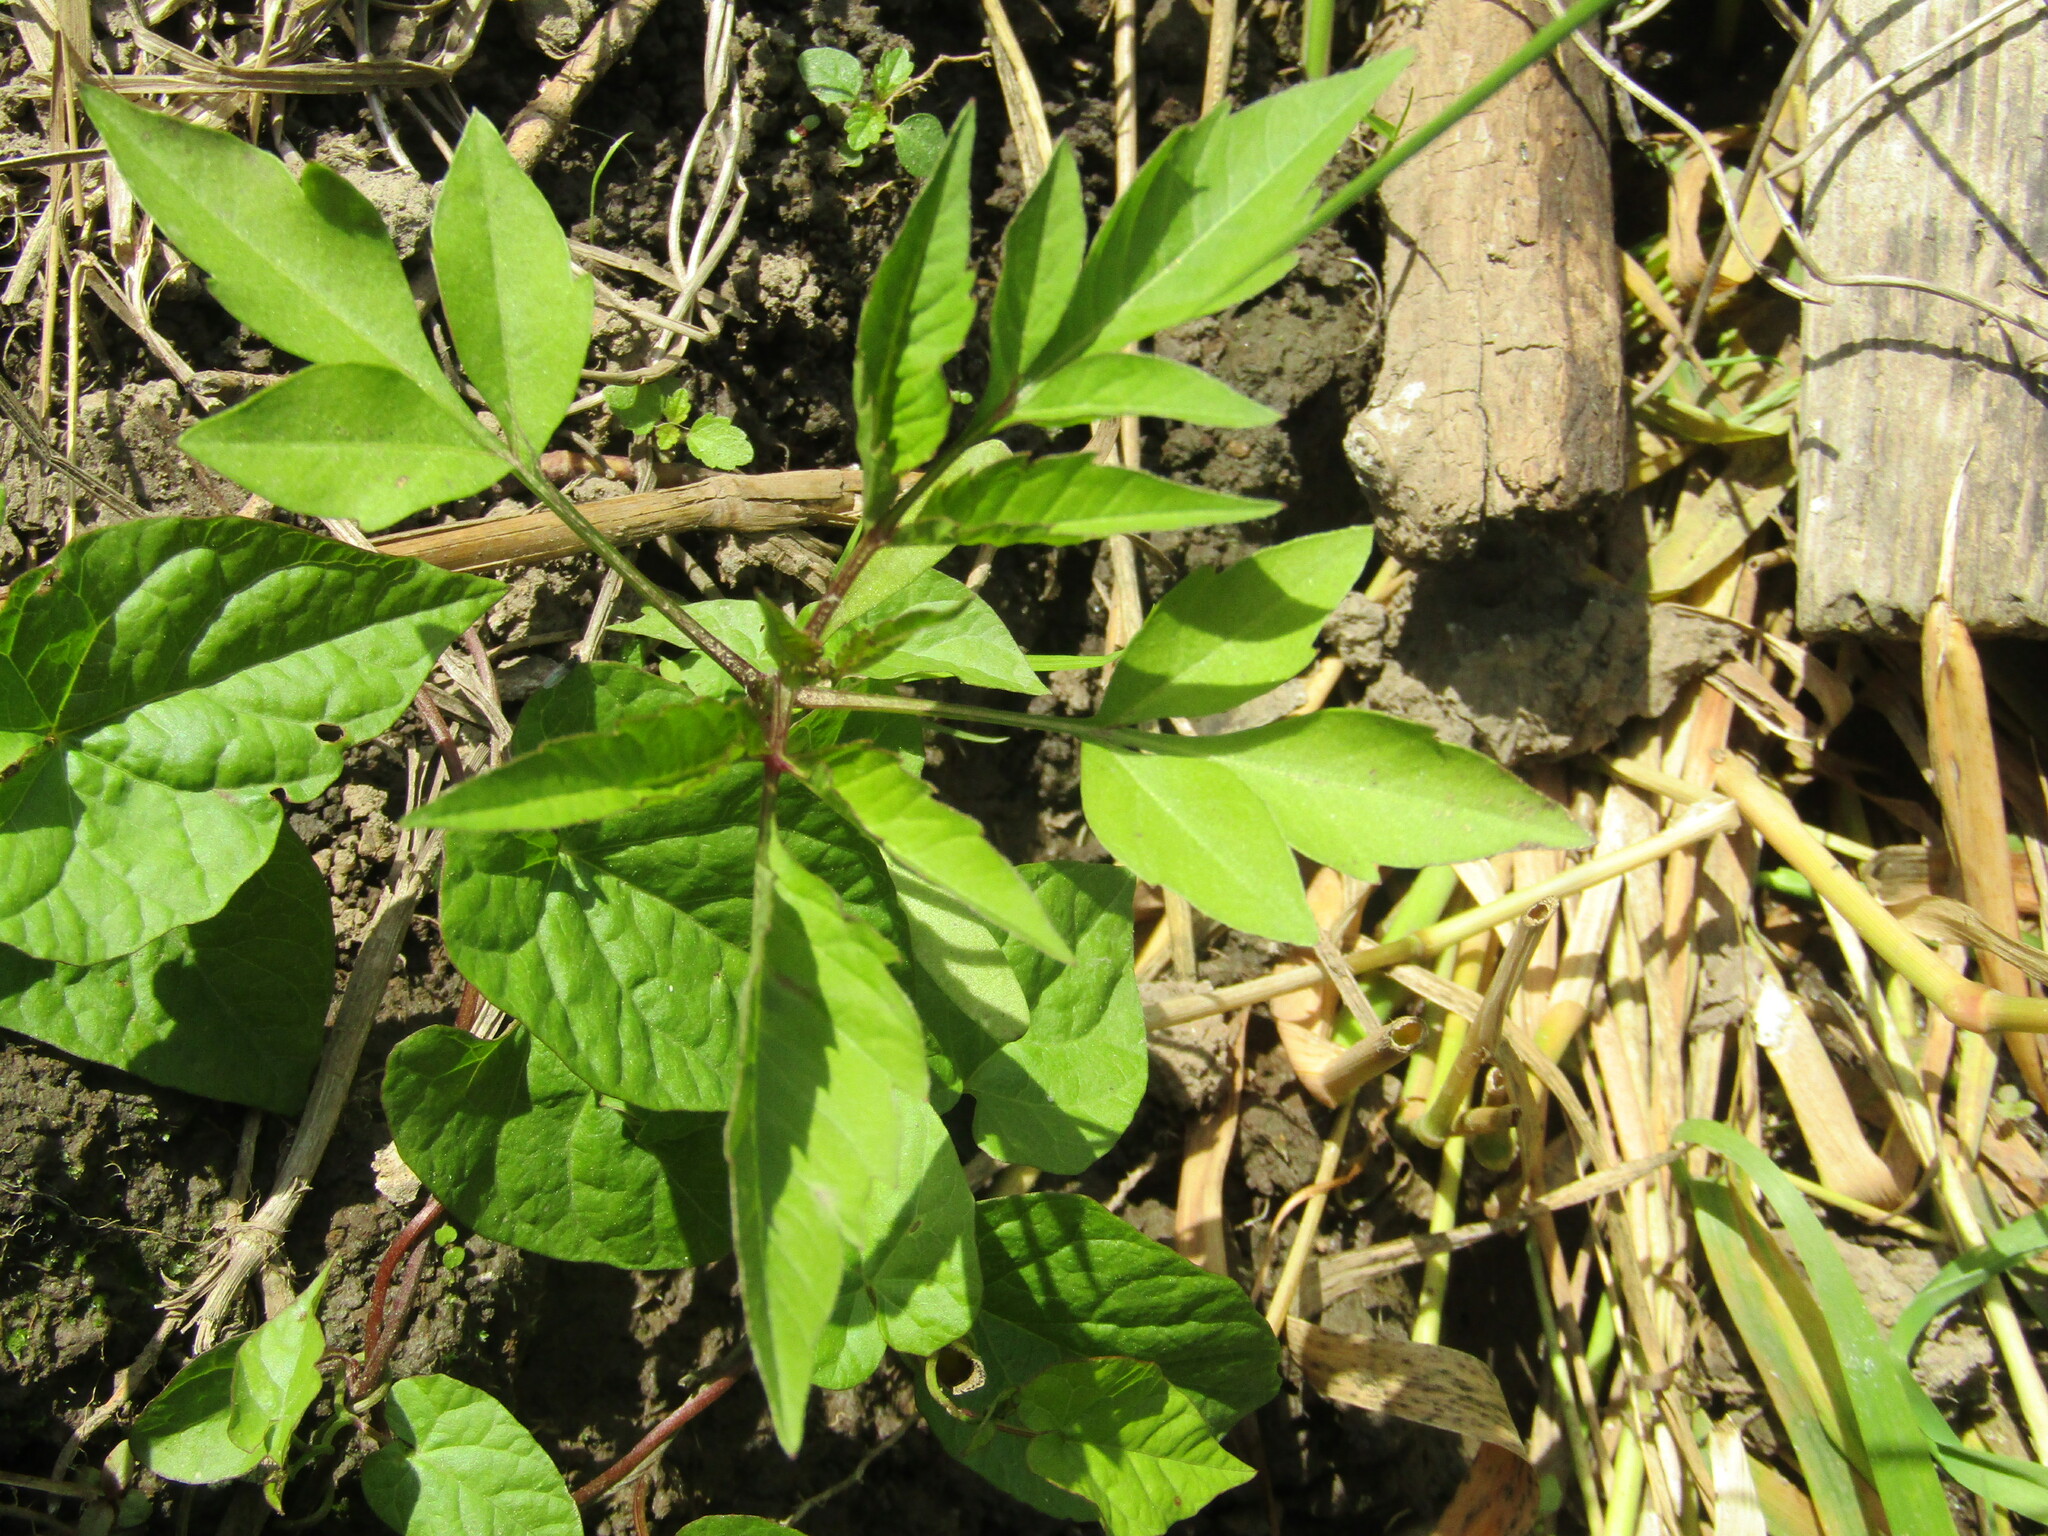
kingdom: Plantae
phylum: Tracheophyta
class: Magnoliopsida
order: Asterales
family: Asteraceae
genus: Bidens
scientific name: Bidens frondosa
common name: Beggarticks
